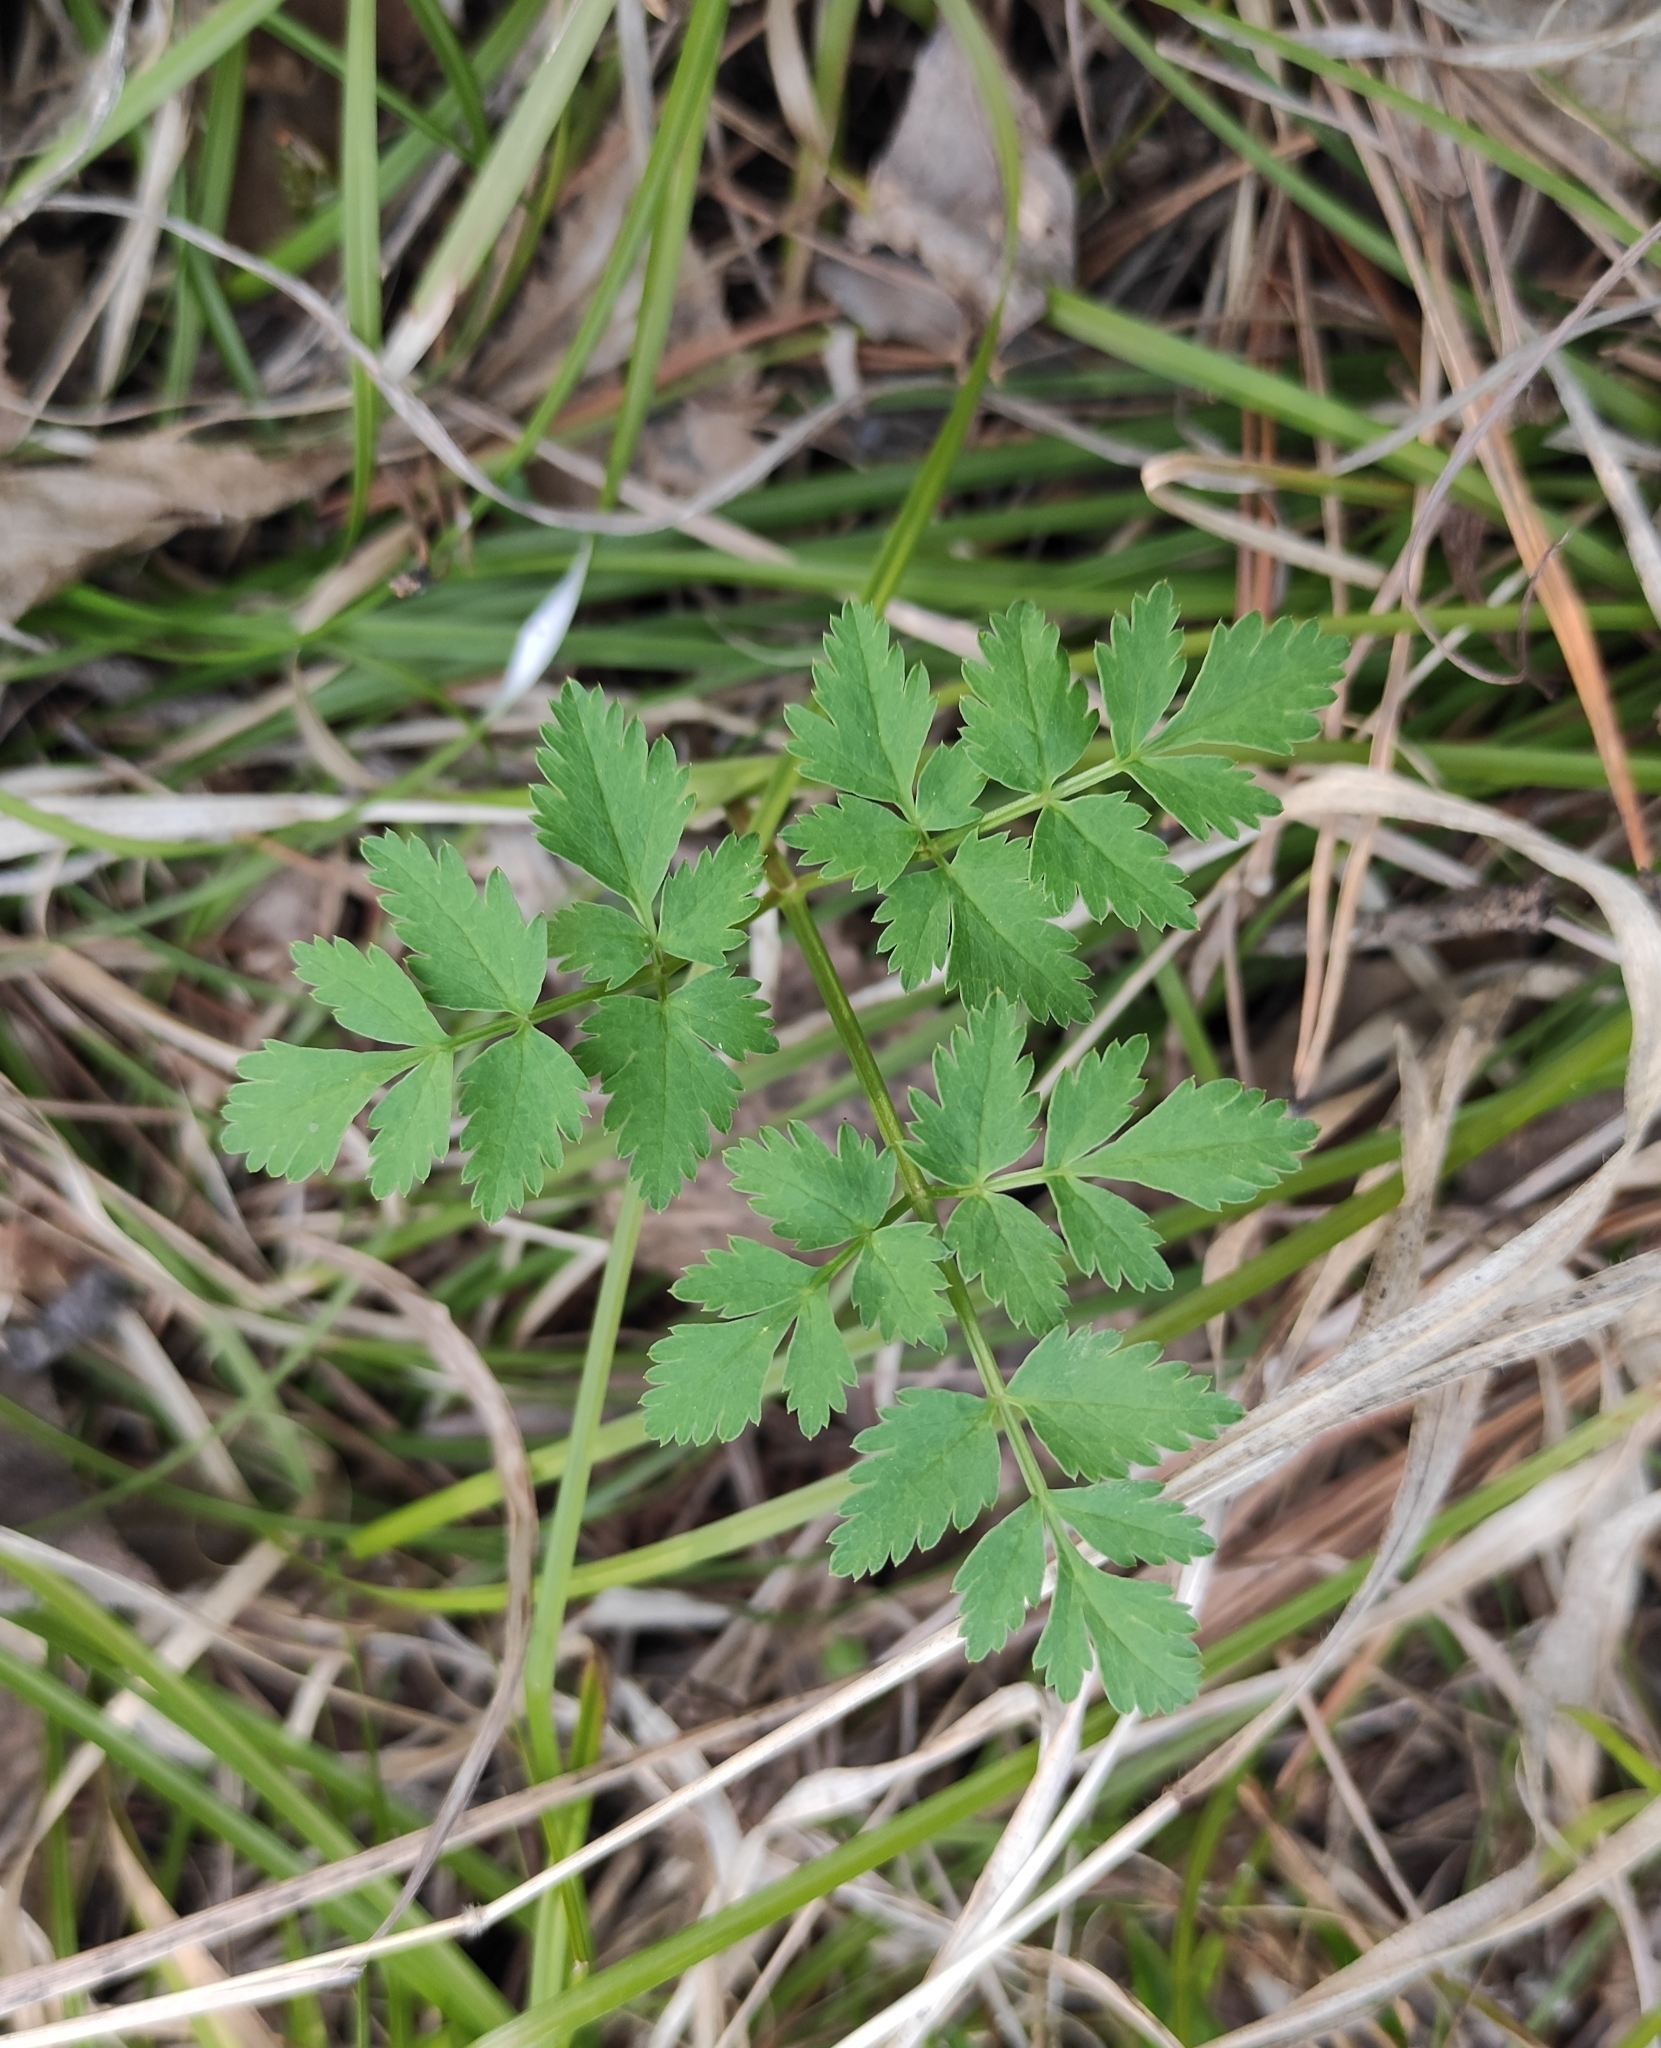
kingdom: Plantae
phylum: Tracheophyta
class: Magnoliopsida
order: Apiales
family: Apiaceae
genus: Aegopodium
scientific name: Aegopodium alpestre
